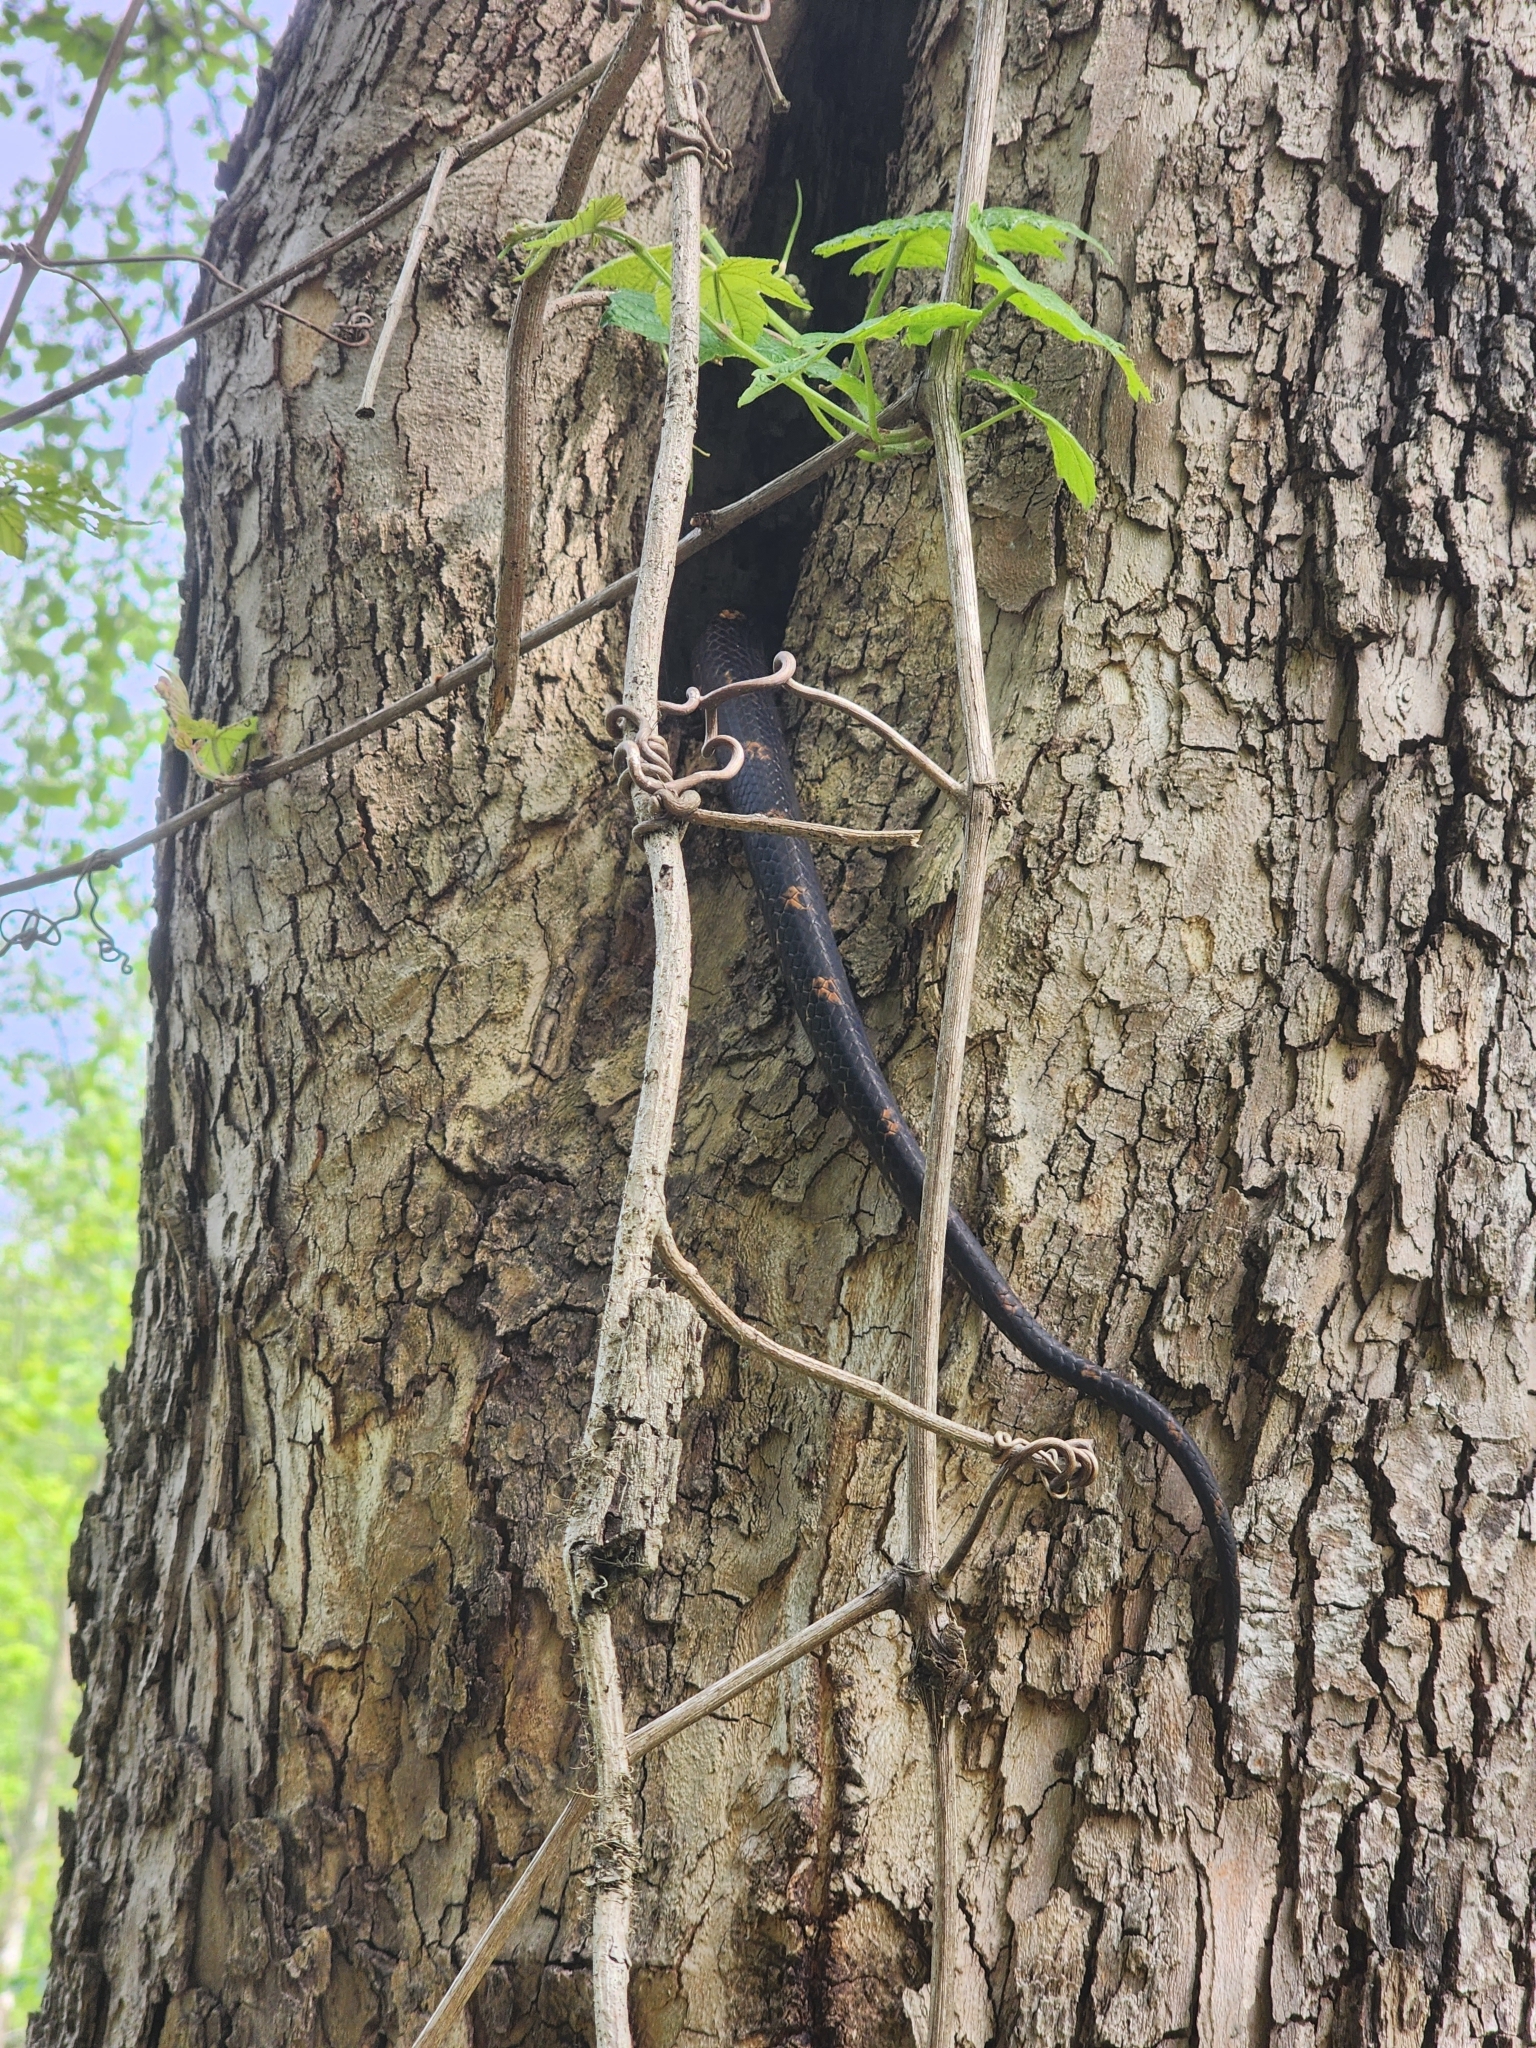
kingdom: Animalia
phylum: Chordata
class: Squamata
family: Colubridae
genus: Pantherophis
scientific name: Pantherophis spiloides
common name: Gray rat snake
